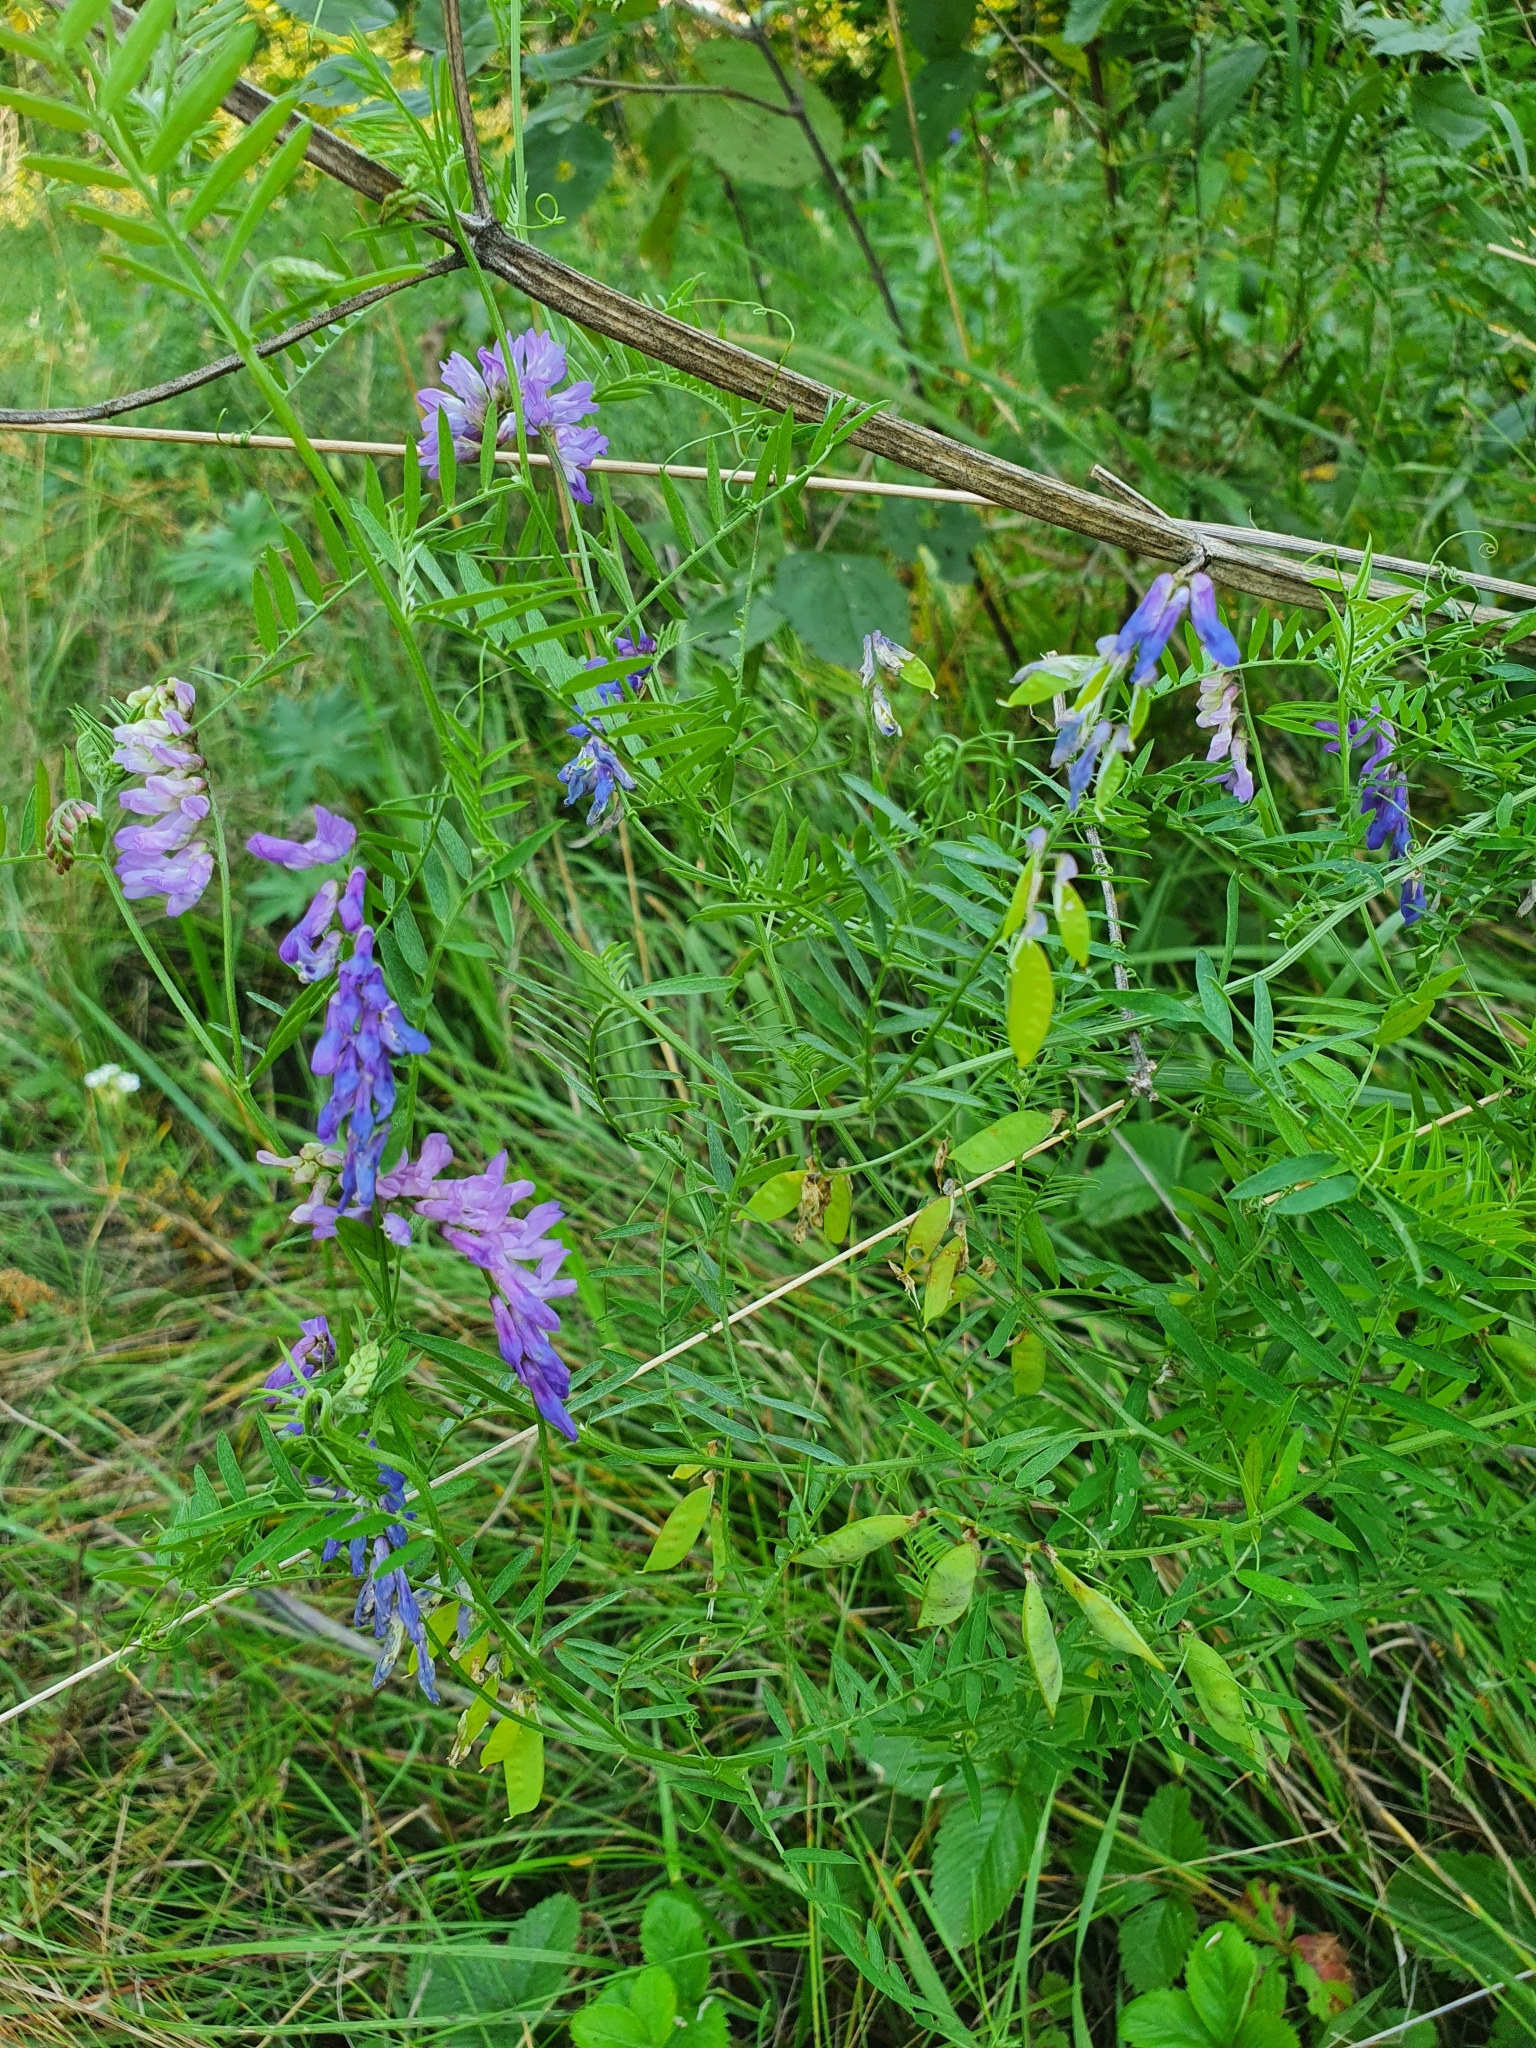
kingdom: Plantae
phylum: Tracheophyta
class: Magnoliopsida
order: Fabales
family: Fabaceae
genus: Vicia
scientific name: Vicia cracca
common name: Bird vetch
